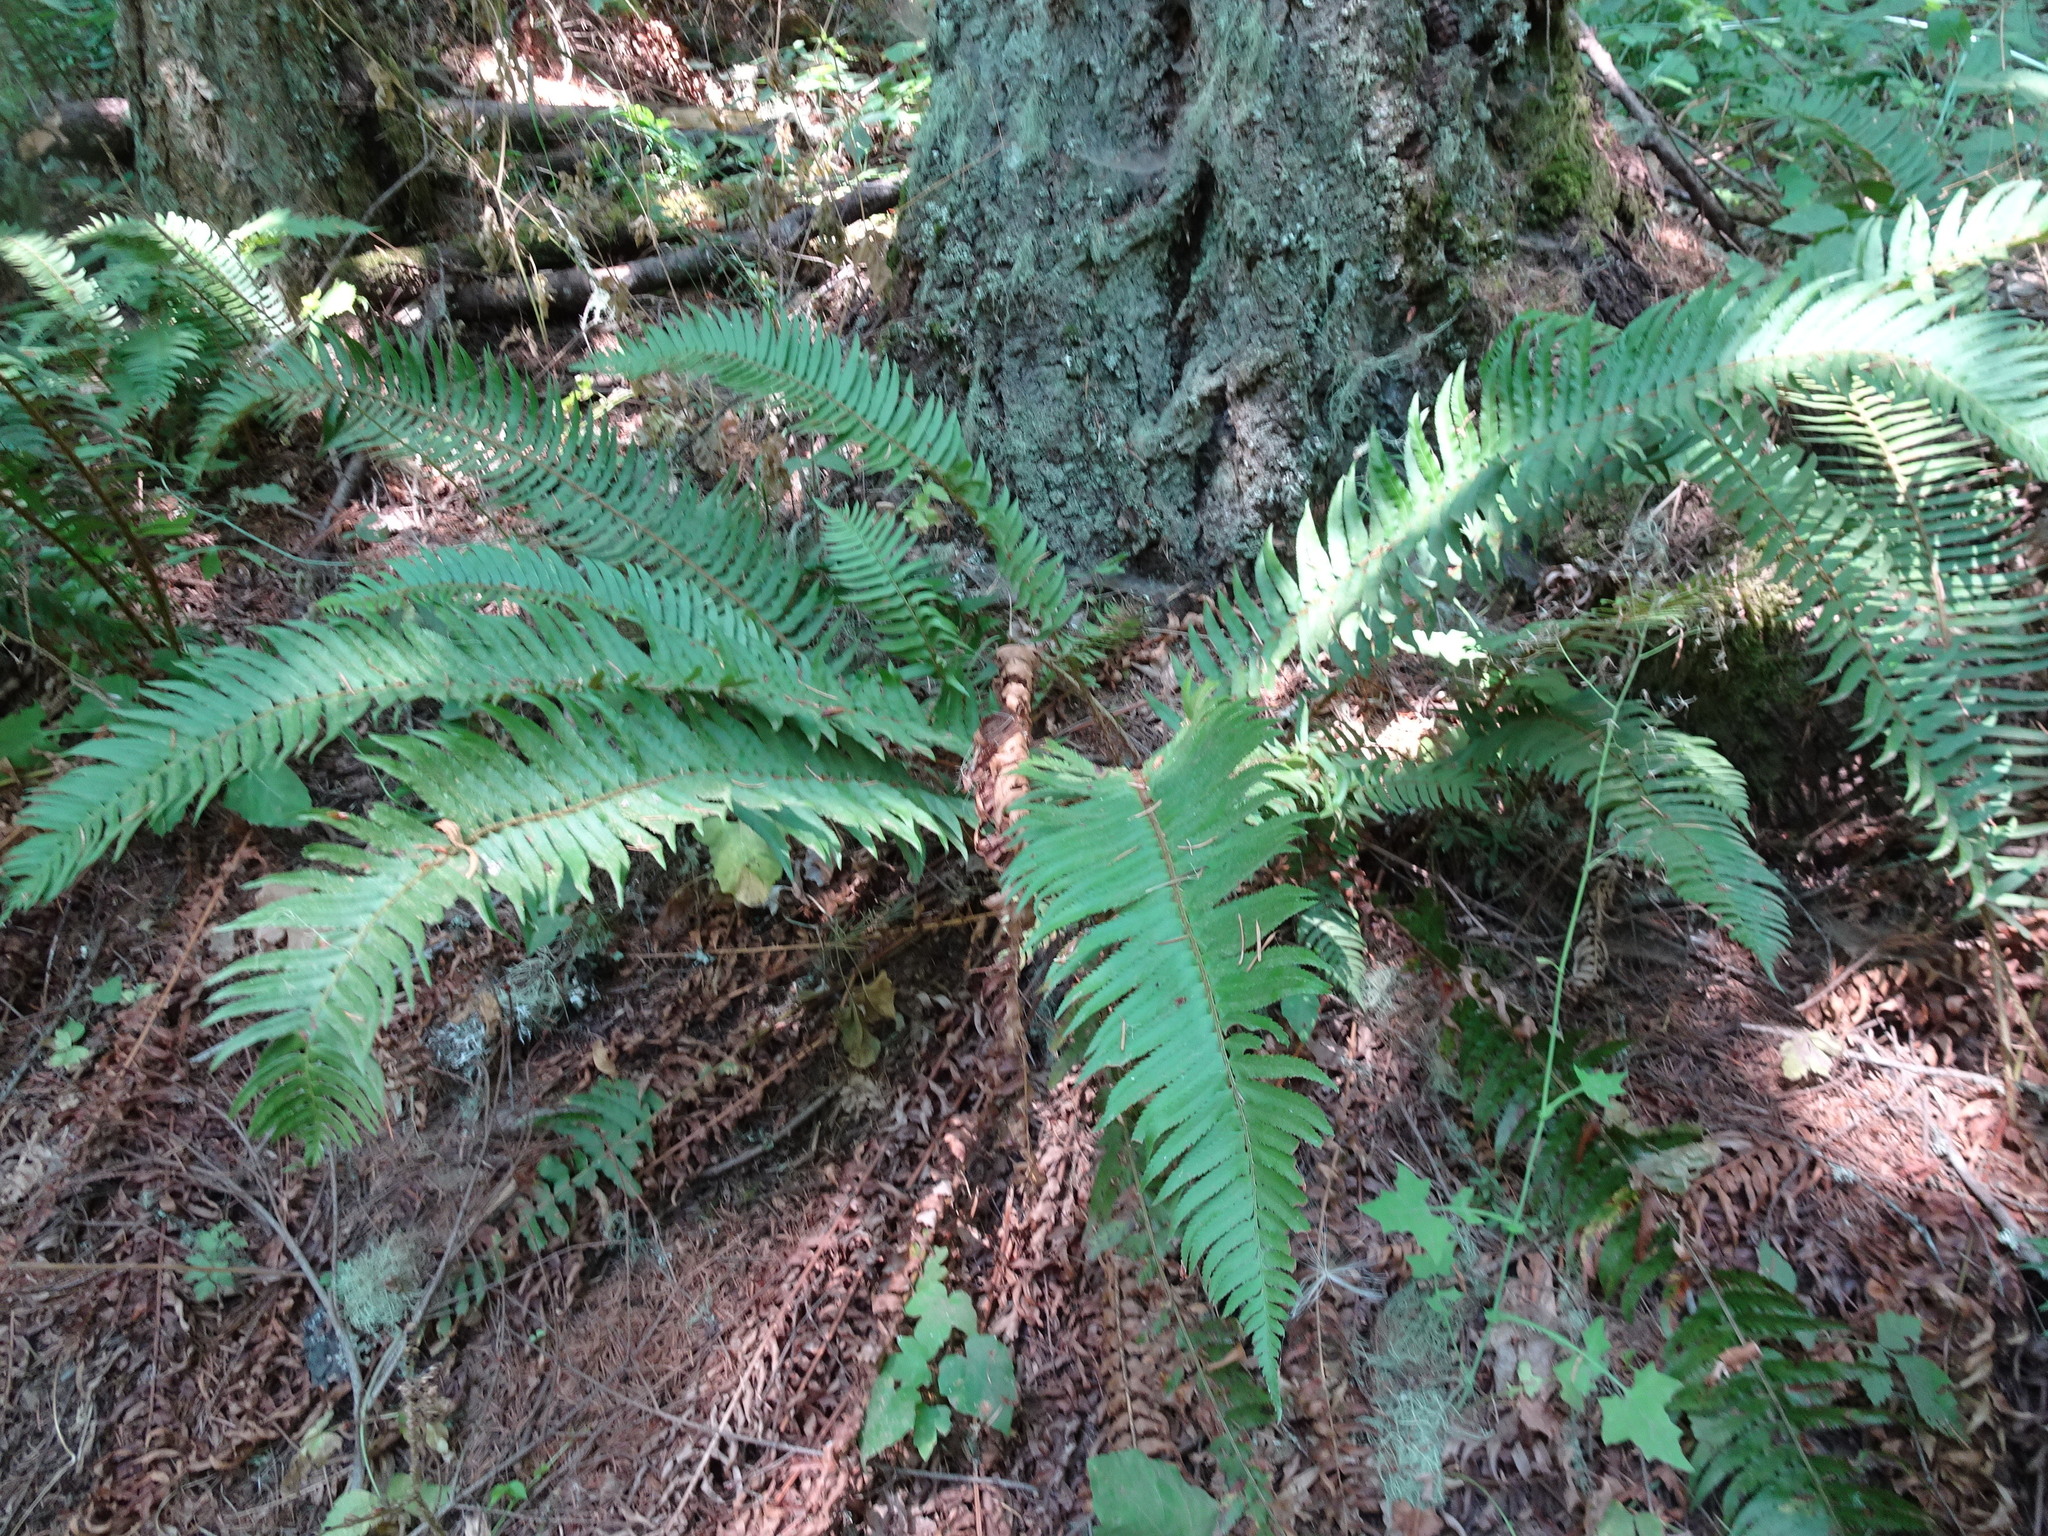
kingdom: Plantae
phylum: Tracheophyta
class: Polypodiopsida
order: Polypodiales
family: Dryopteridaceae
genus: Polystichum
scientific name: Polystichum munitum
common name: Western sword-fern
